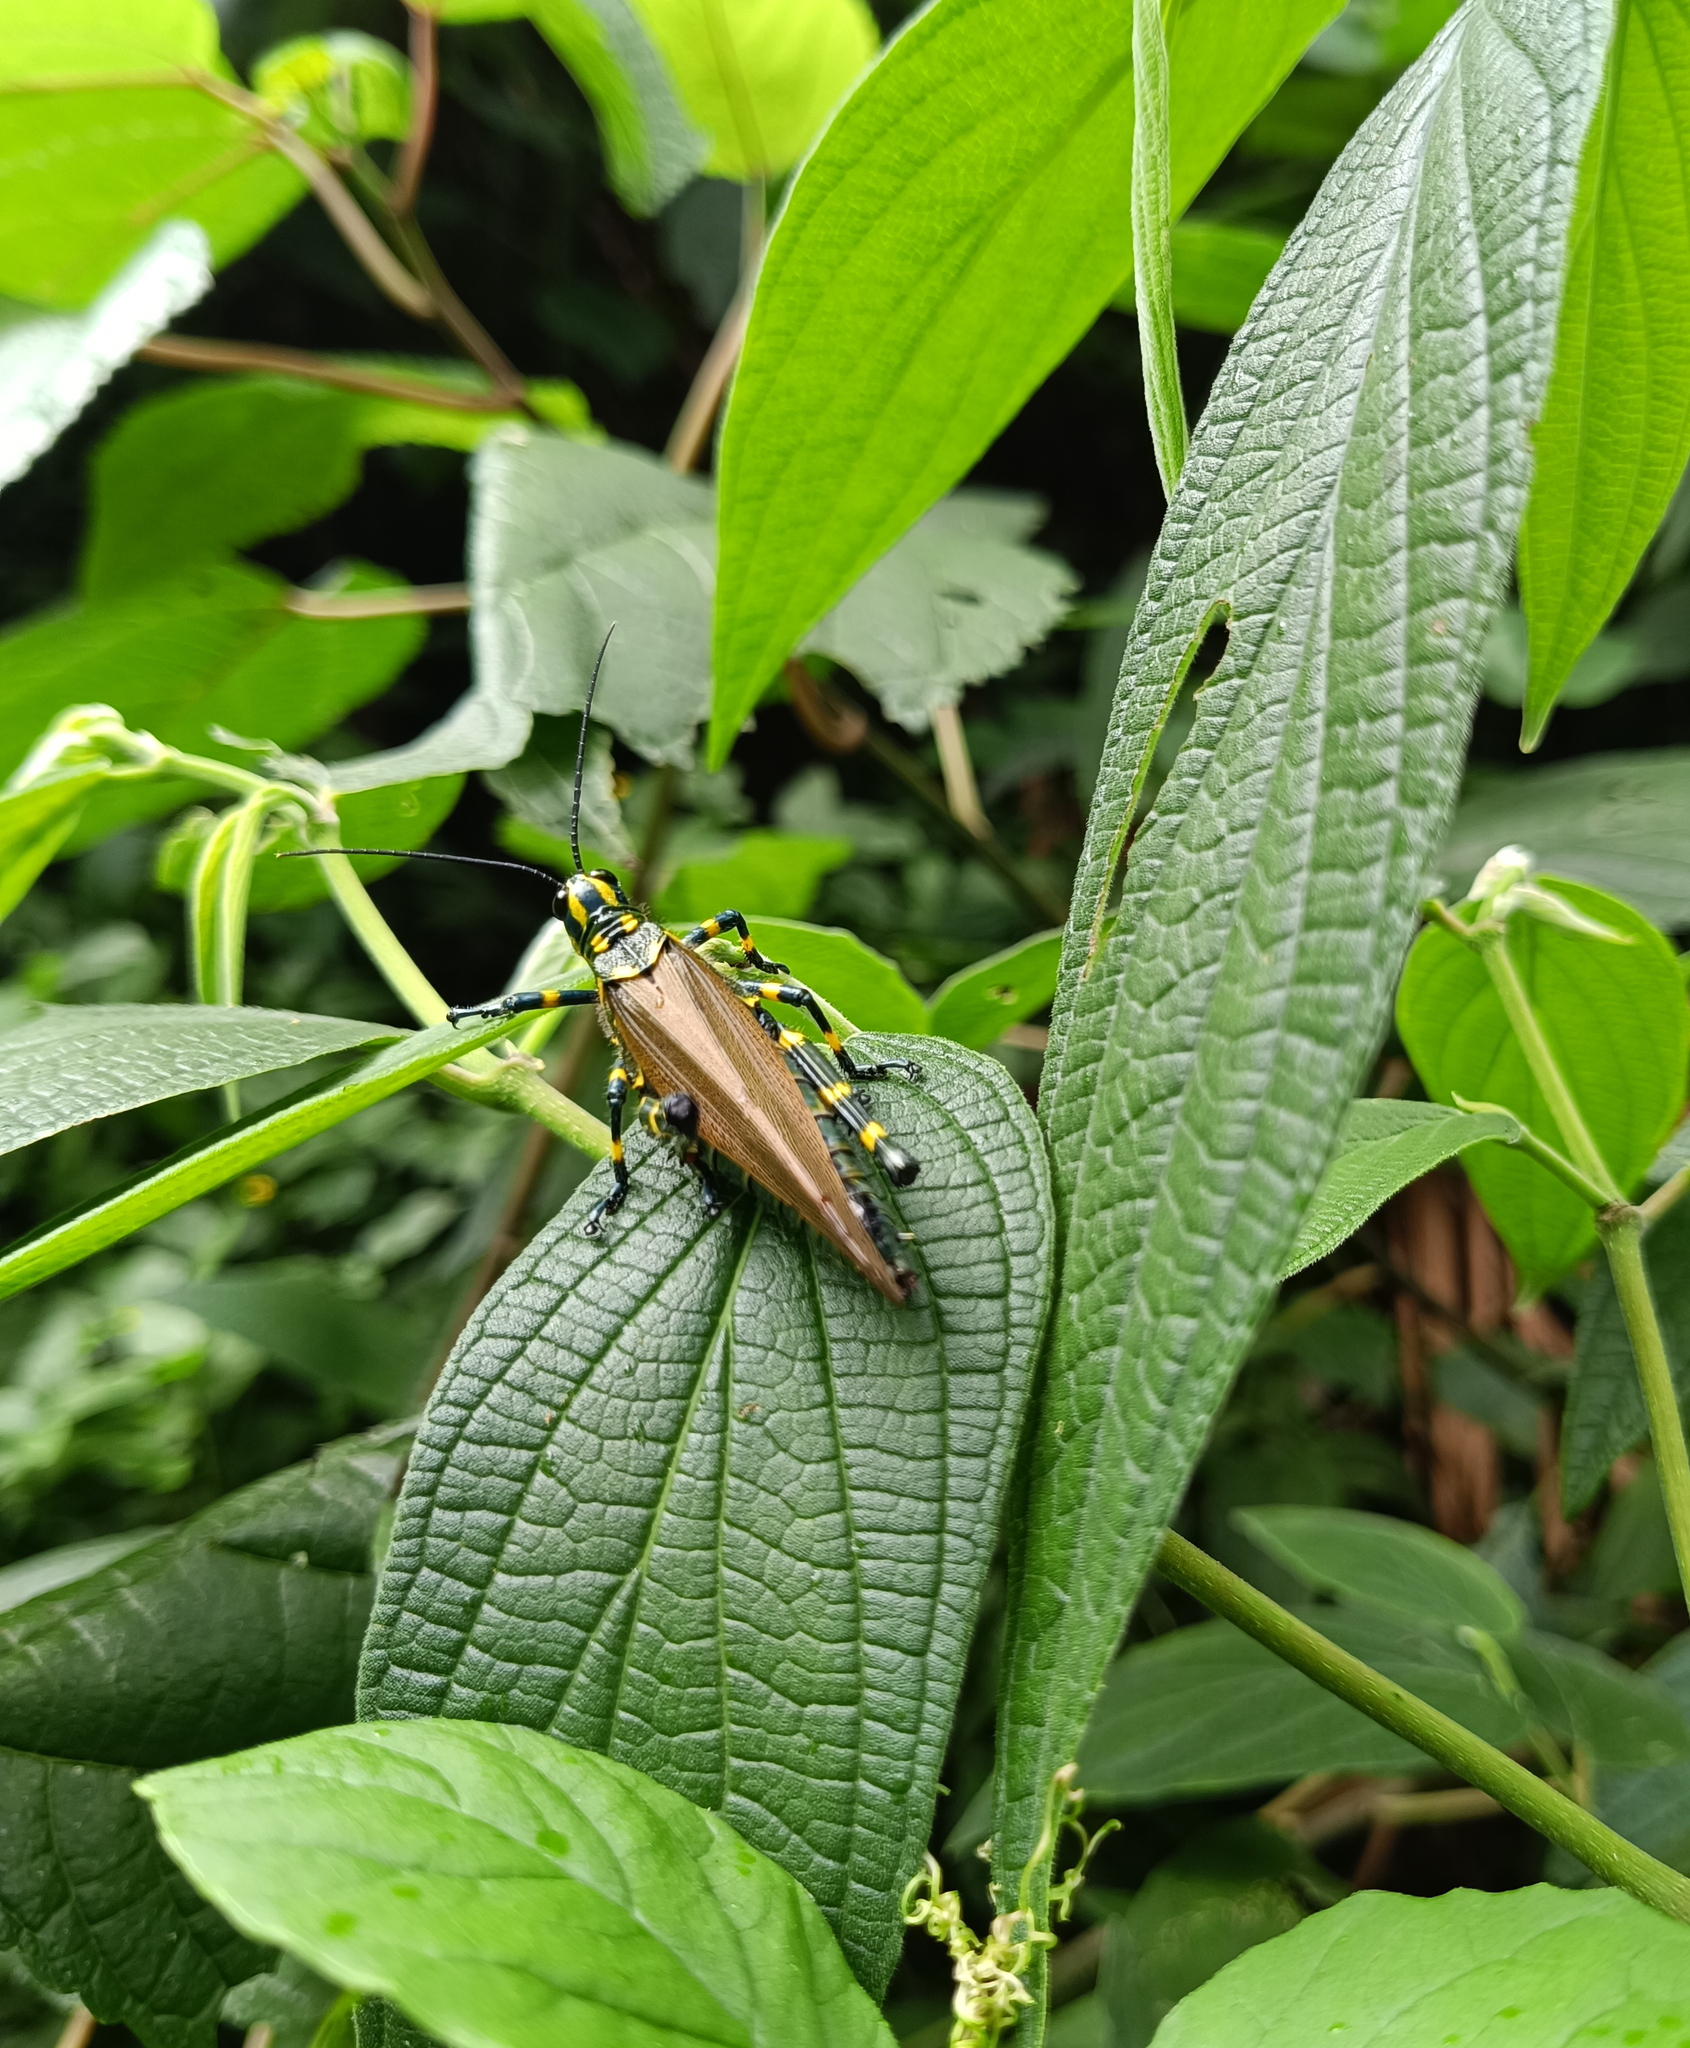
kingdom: Animalia
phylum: Arthropoda
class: Insecta
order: Orthoptera
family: Romaleidae
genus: Chromacris
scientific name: Chromacris speciosa
